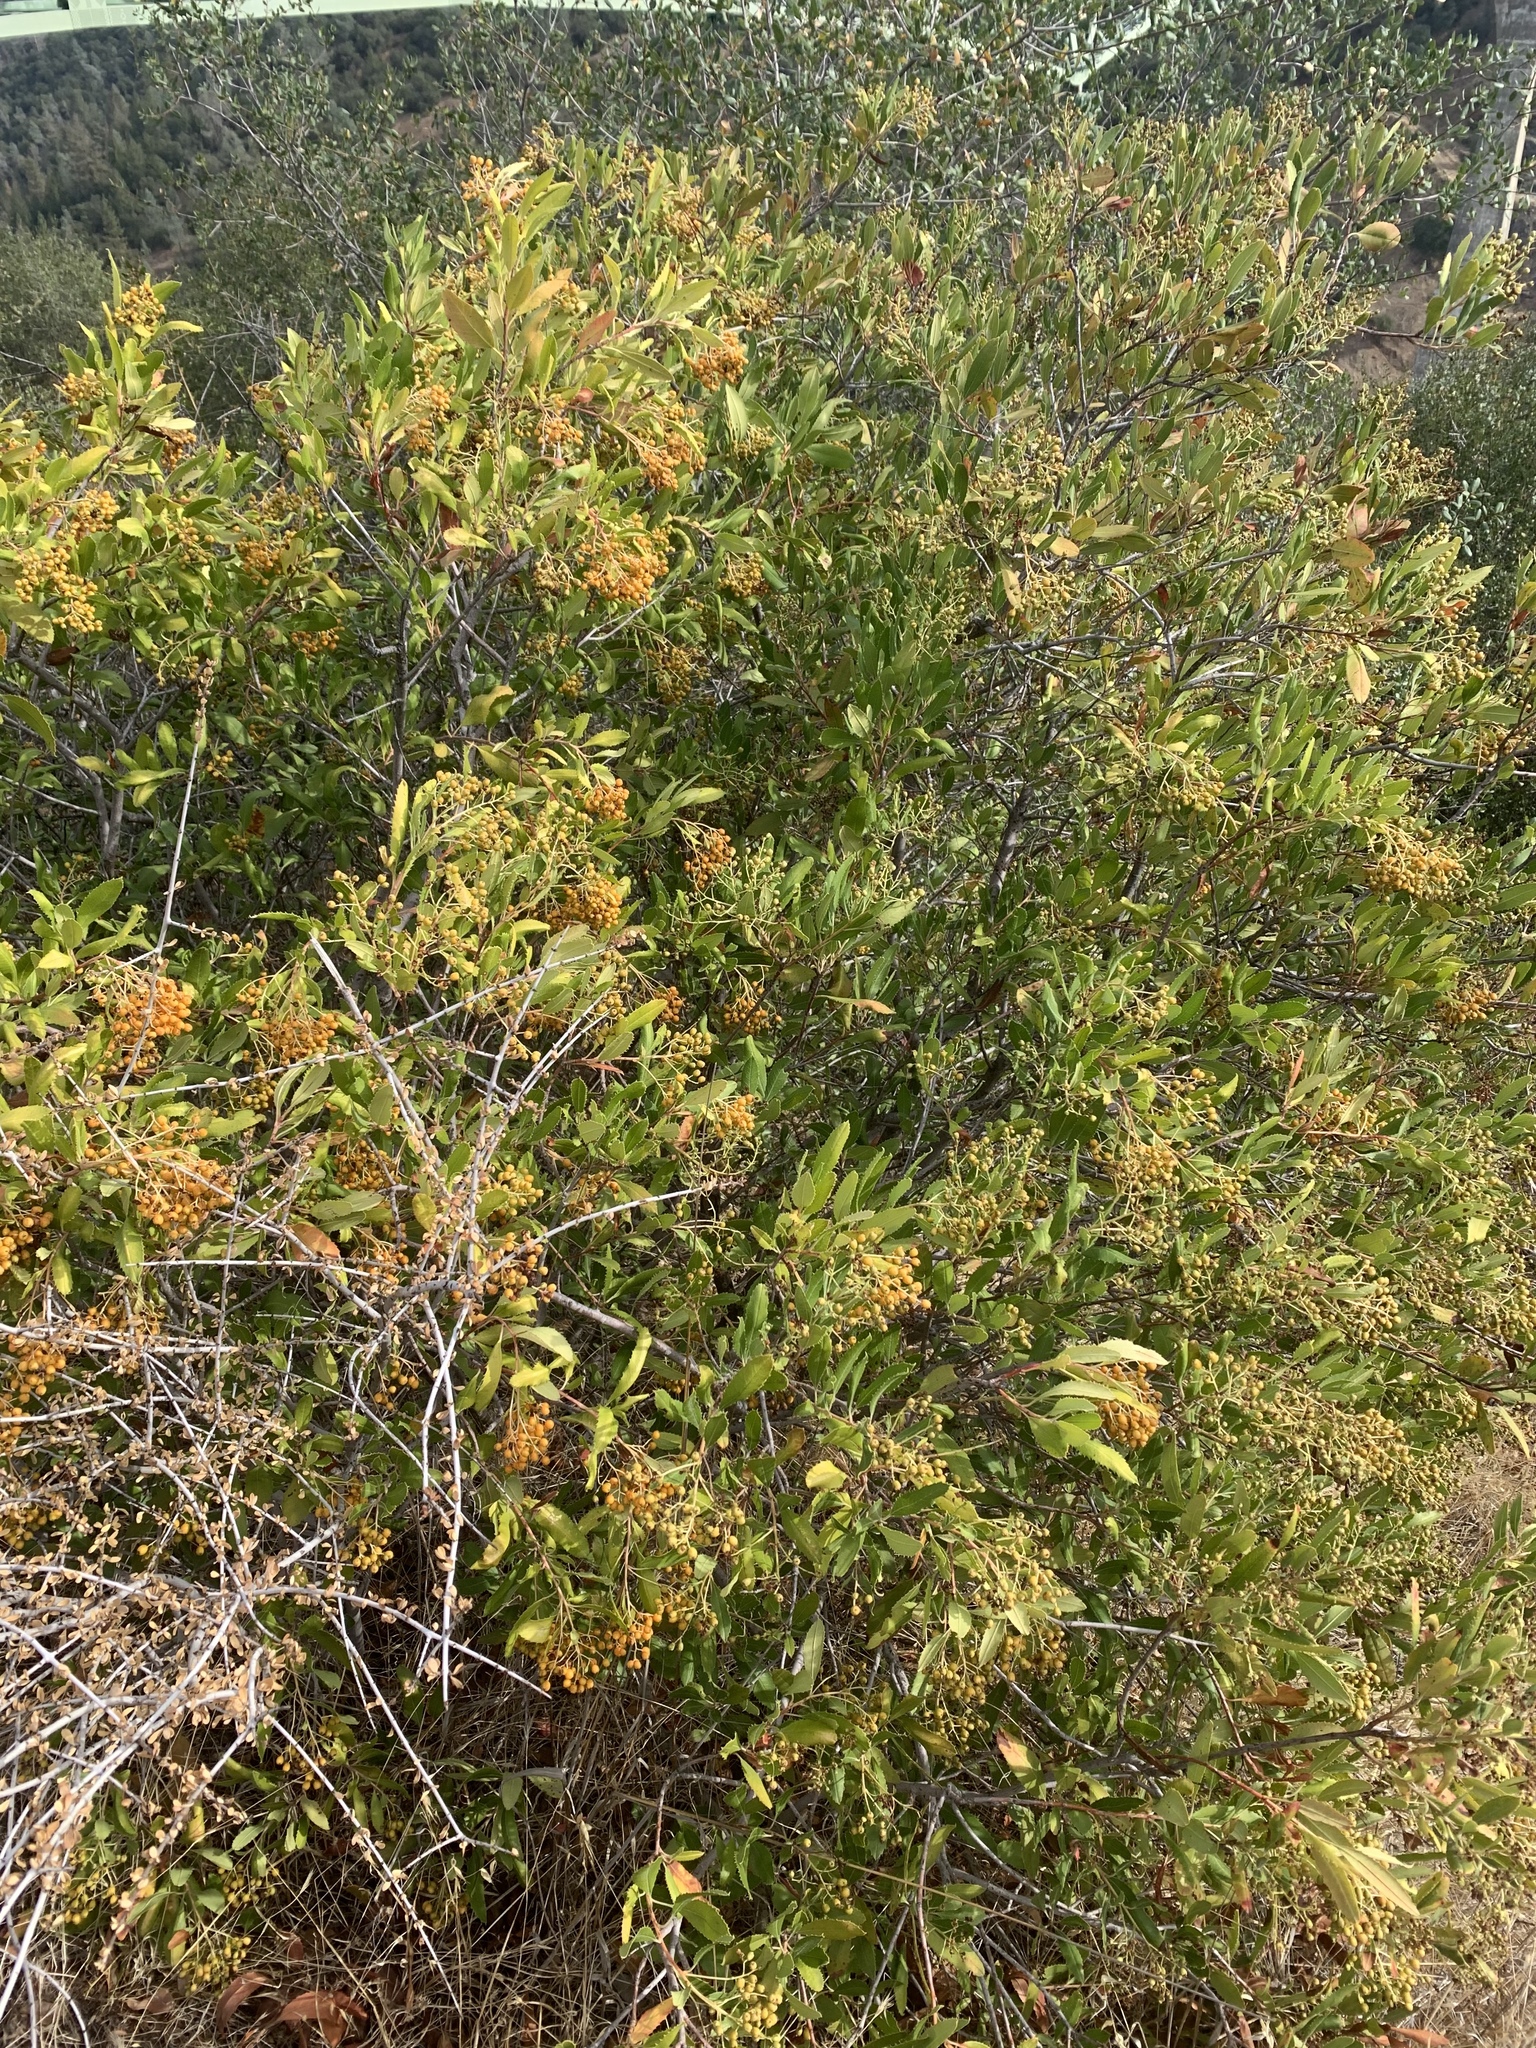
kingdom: Plantae
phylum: Tracheophyta
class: Magnoliopsida
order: Rosales
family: Rosaceae
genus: Heteromeles
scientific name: Heteromeles arbutifolia
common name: California-holly
